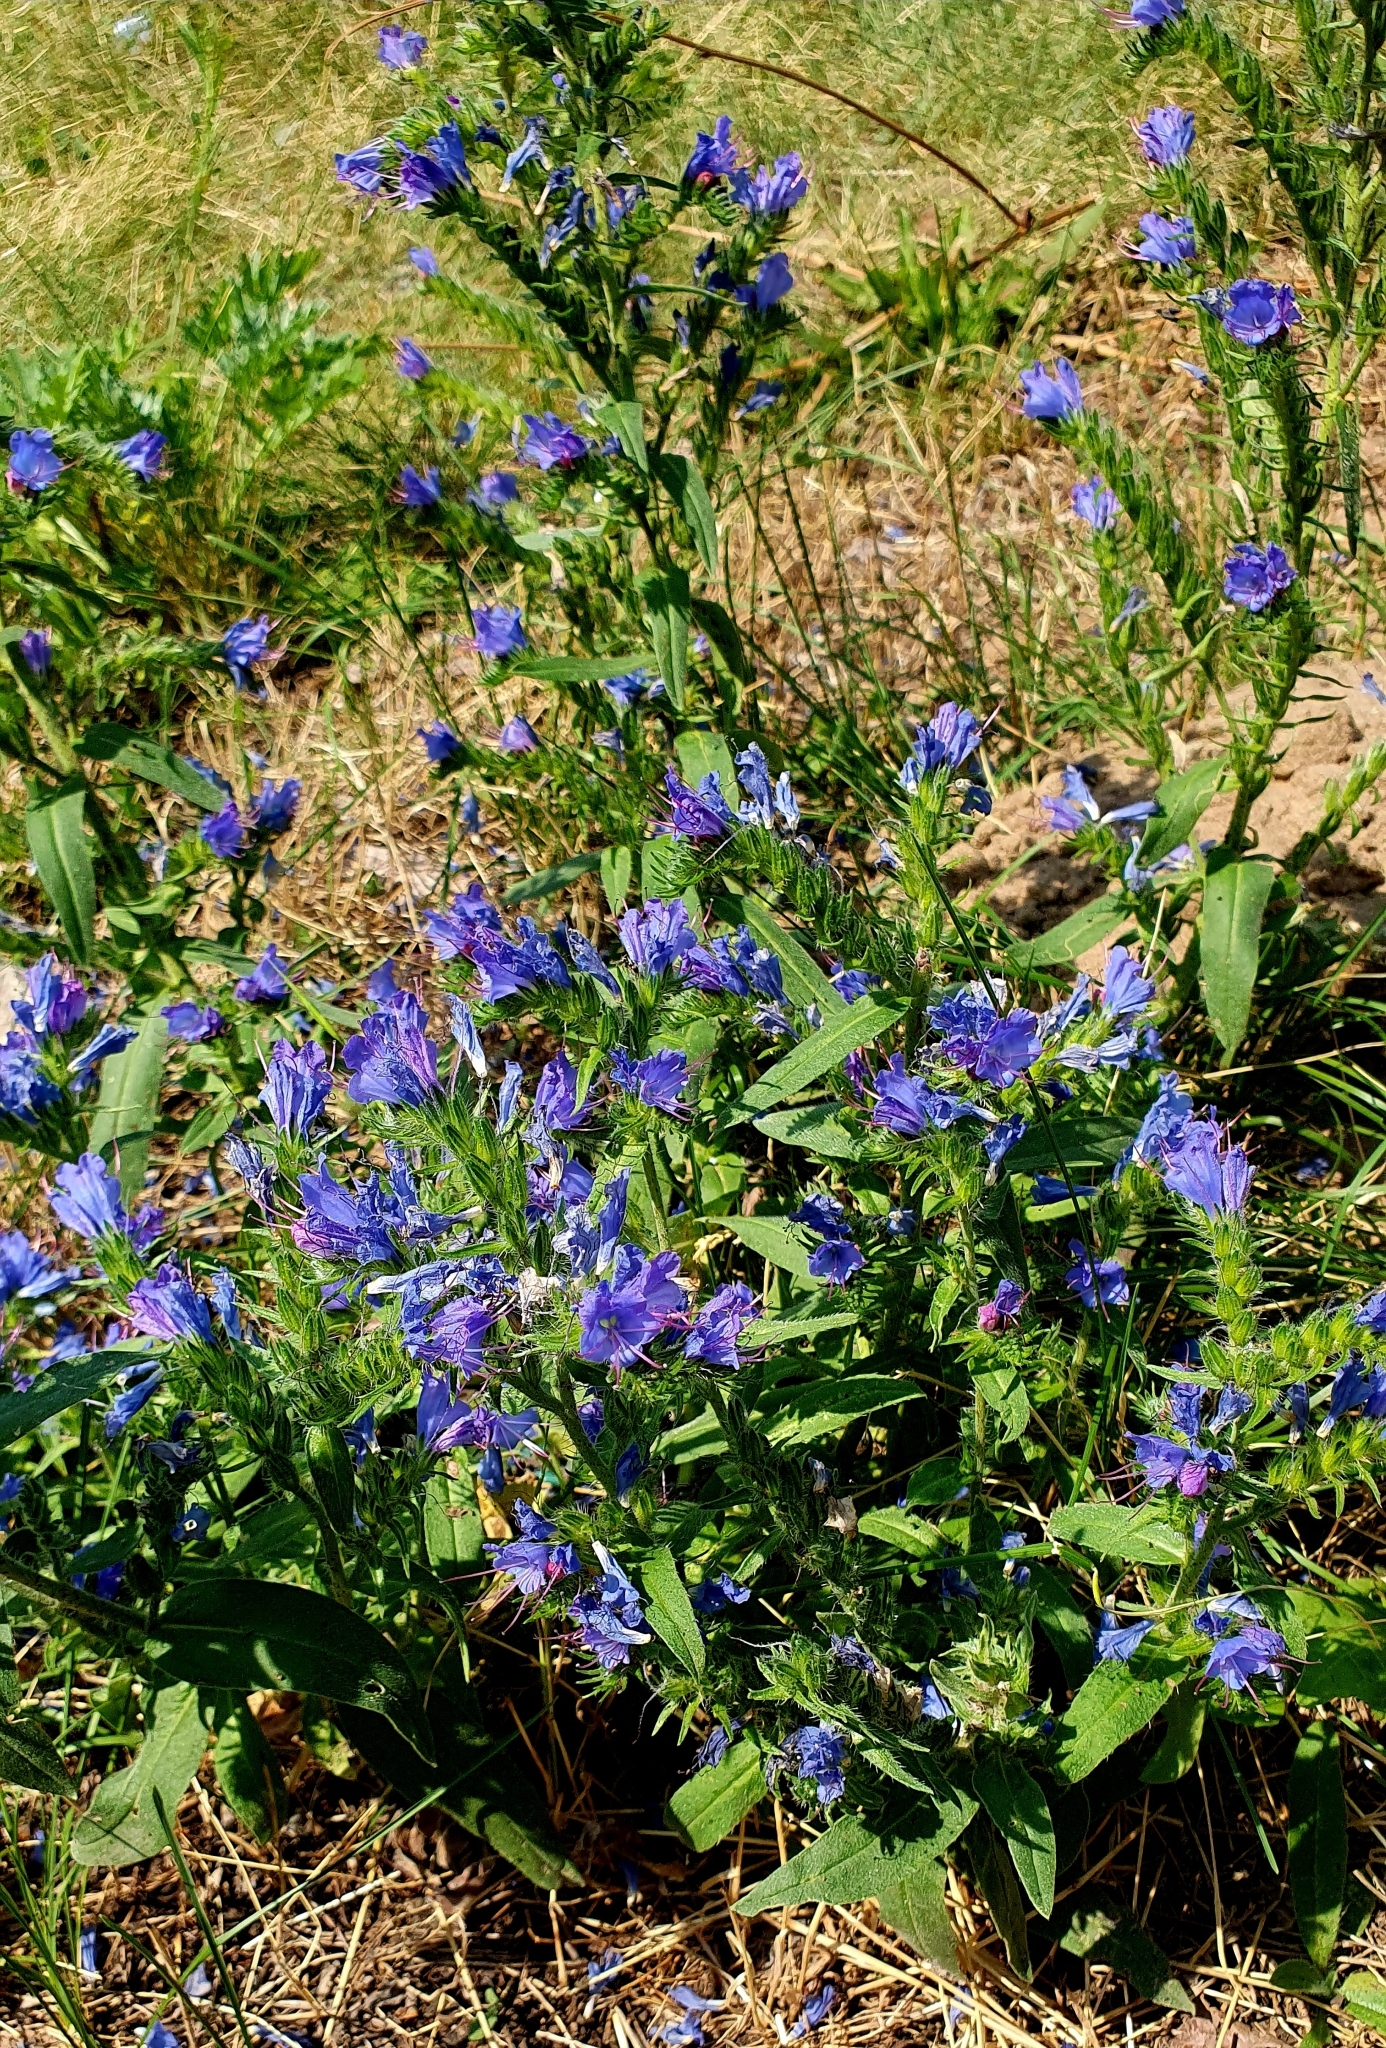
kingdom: Plantae
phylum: Tracheophyta
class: Magnoliopsida
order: Boraginales
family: Boraginaceae
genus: Echium
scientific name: Echium vulgare
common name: Common viper's bugloss
